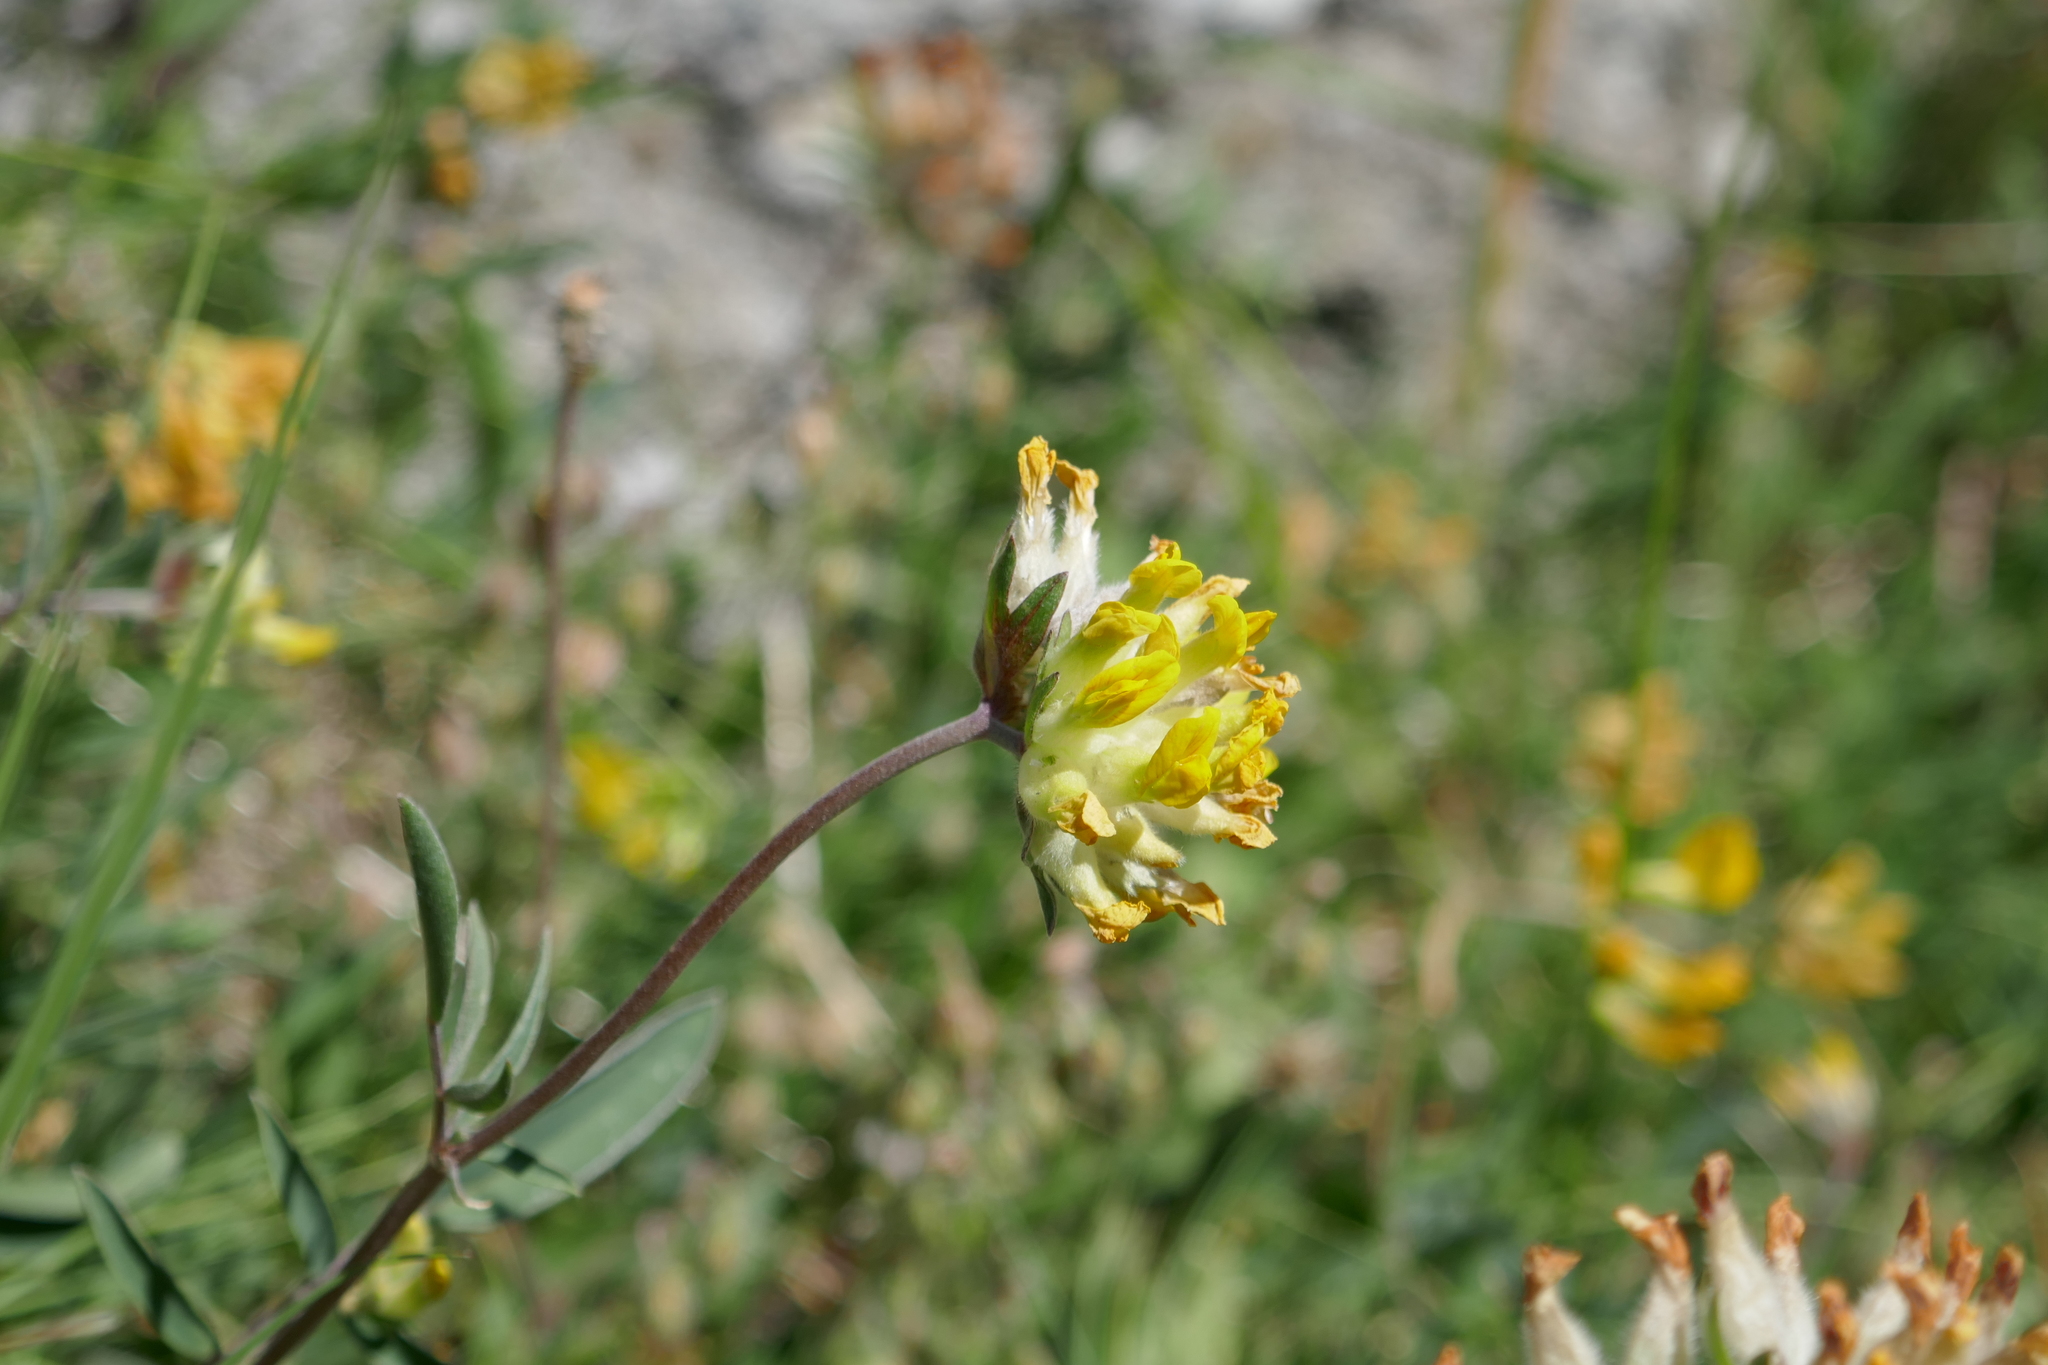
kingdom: Plantae
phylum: Tracheophyta
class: Magnoliopsida
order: Fabales
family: Fabaceae
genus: Anthyllis
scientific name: Anthyllis vulneraria
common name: Kidney vetch
